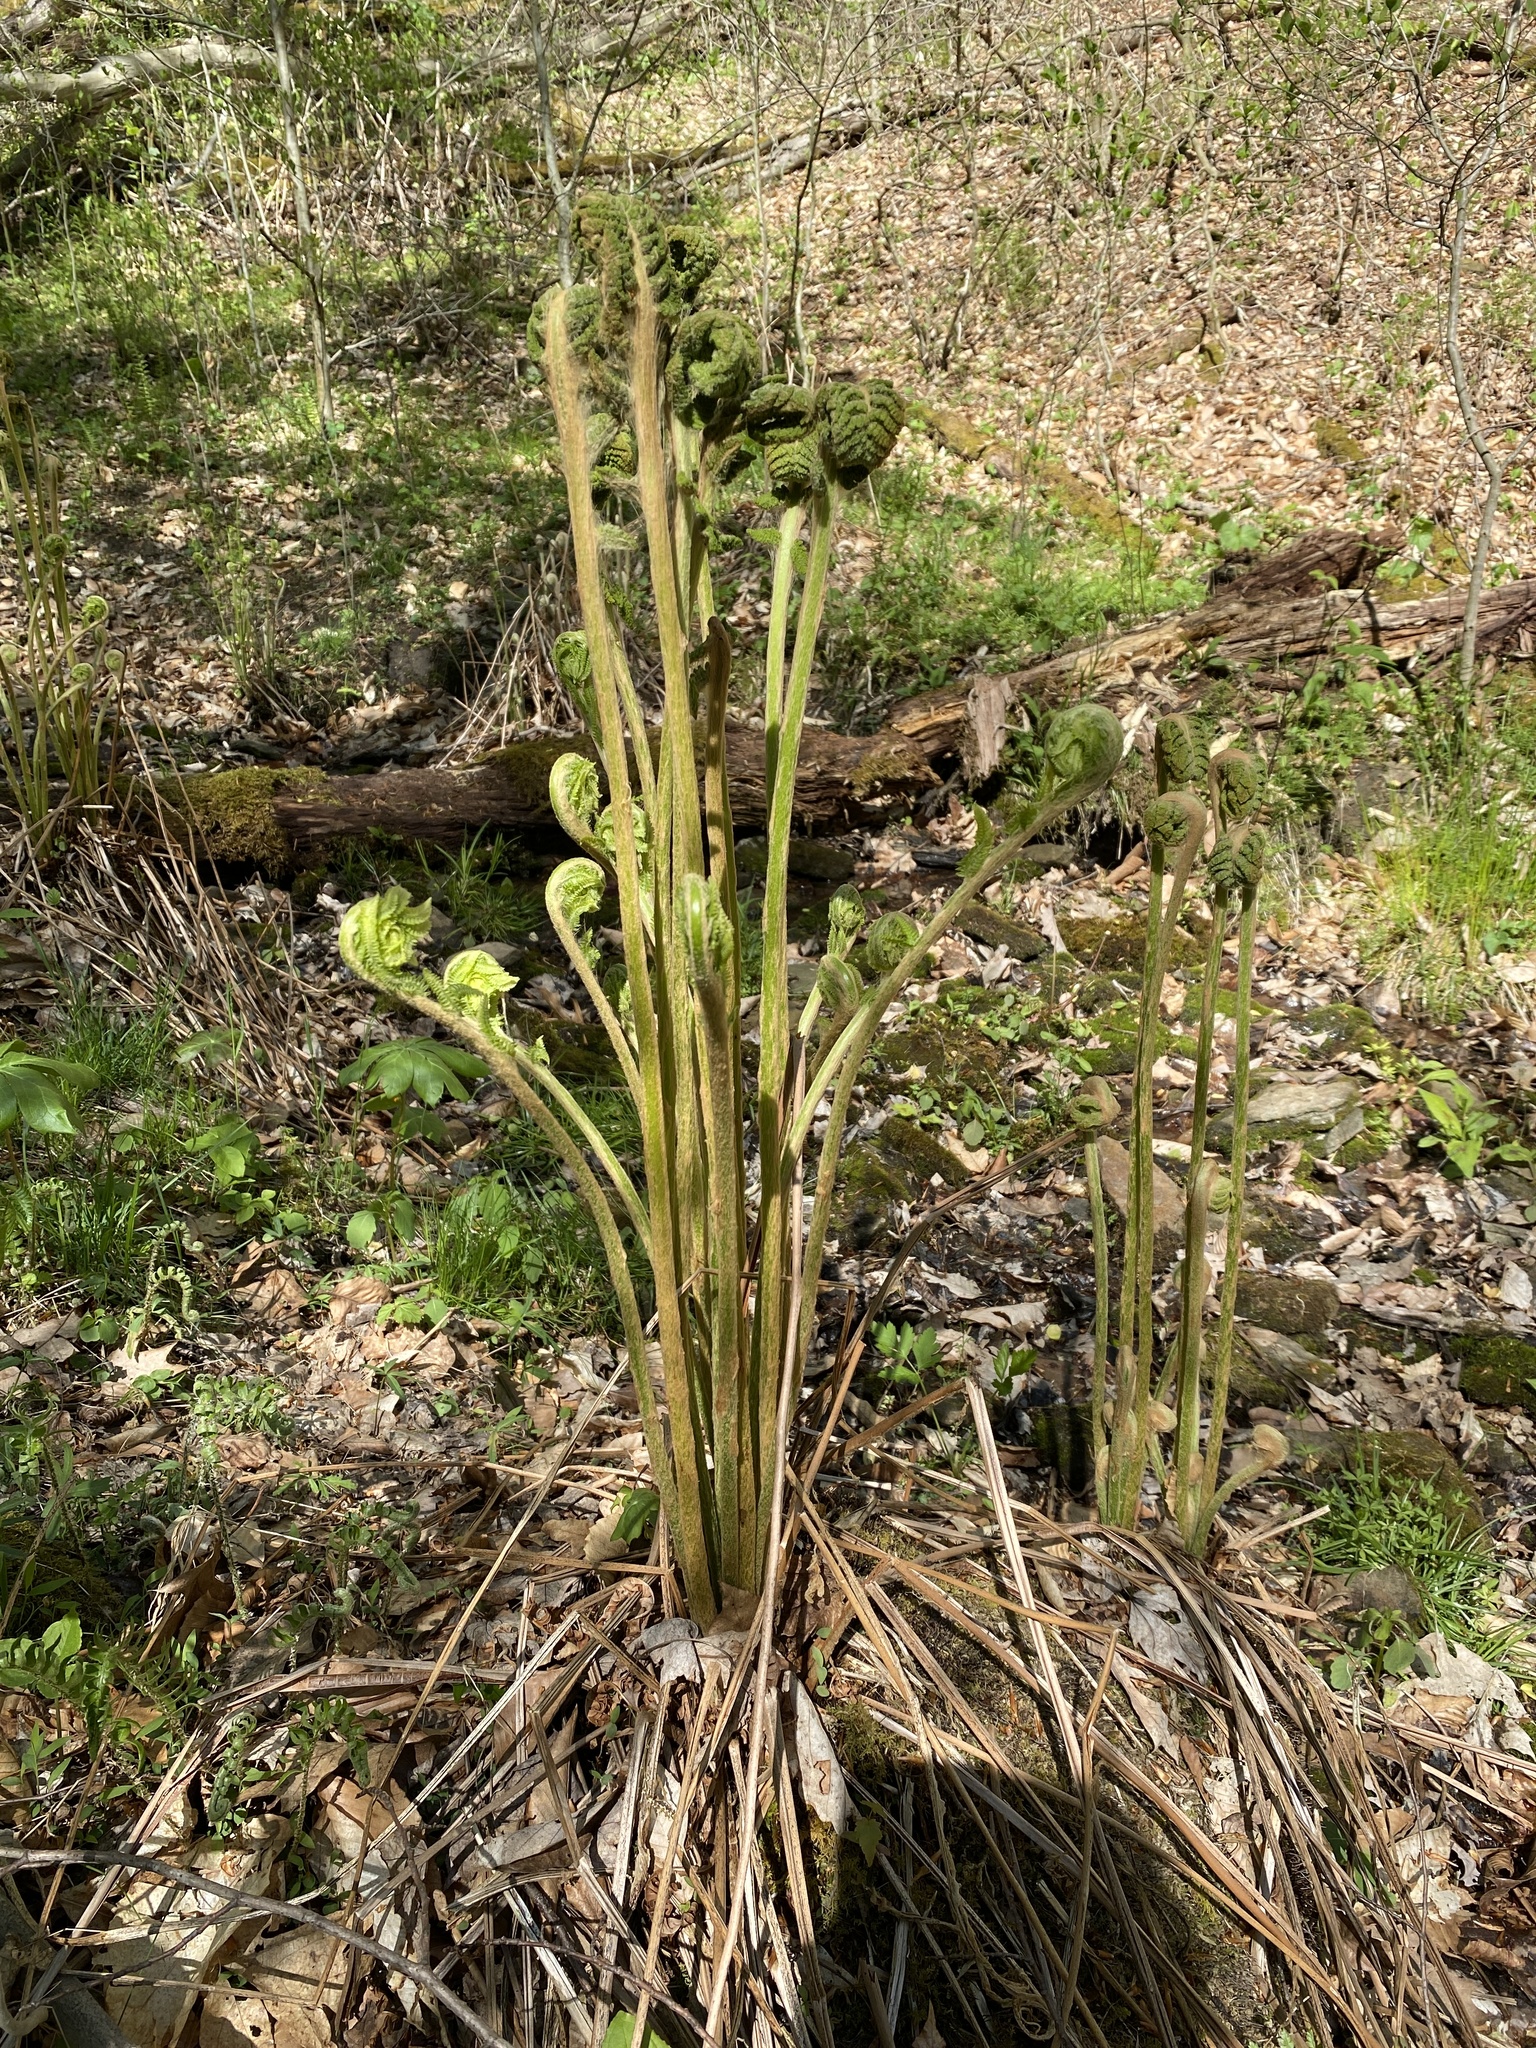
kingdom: Plantae
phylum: Tracheophyta
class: Polypodiopsida
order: Osmundales
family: Osmundaceae
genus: Osmundastrum
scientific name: Osmundastrum cinnamomeum
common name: Cinnamon fern
